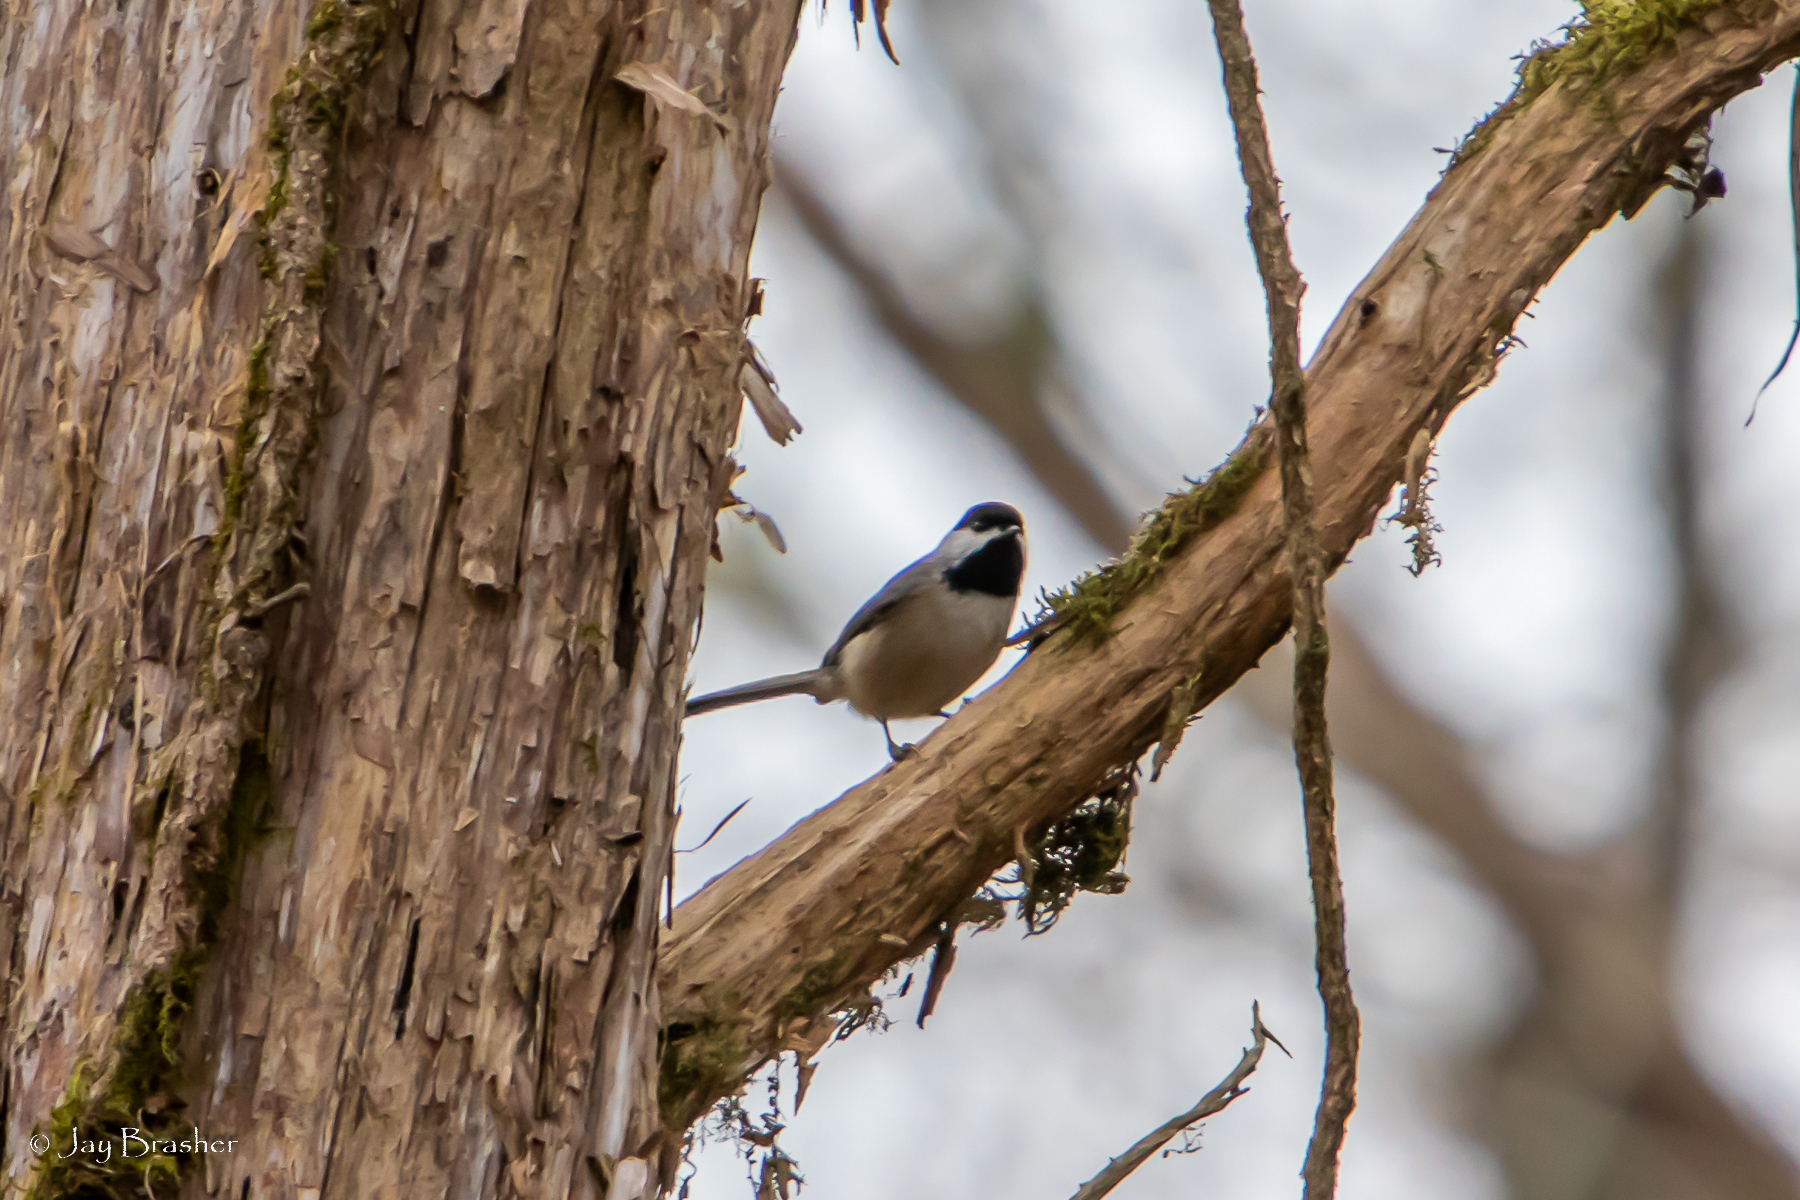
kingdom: Animalia
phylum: Chordata
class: Aves
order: Passeriformes
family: Paridae
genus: Poecile
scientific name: Poecile carolinensis
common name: Carolina chickadee
